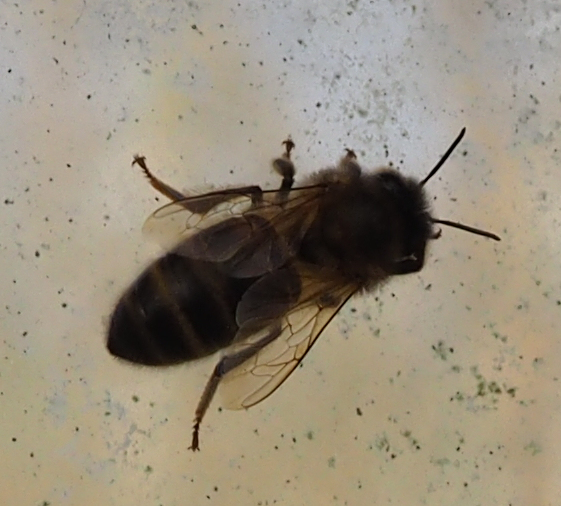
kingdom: Animalia
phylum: Arthropoda
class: Insecta
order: Hymenoptera
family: Apidae
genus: Apis
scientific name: Apis mellifera
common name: Honey bee
